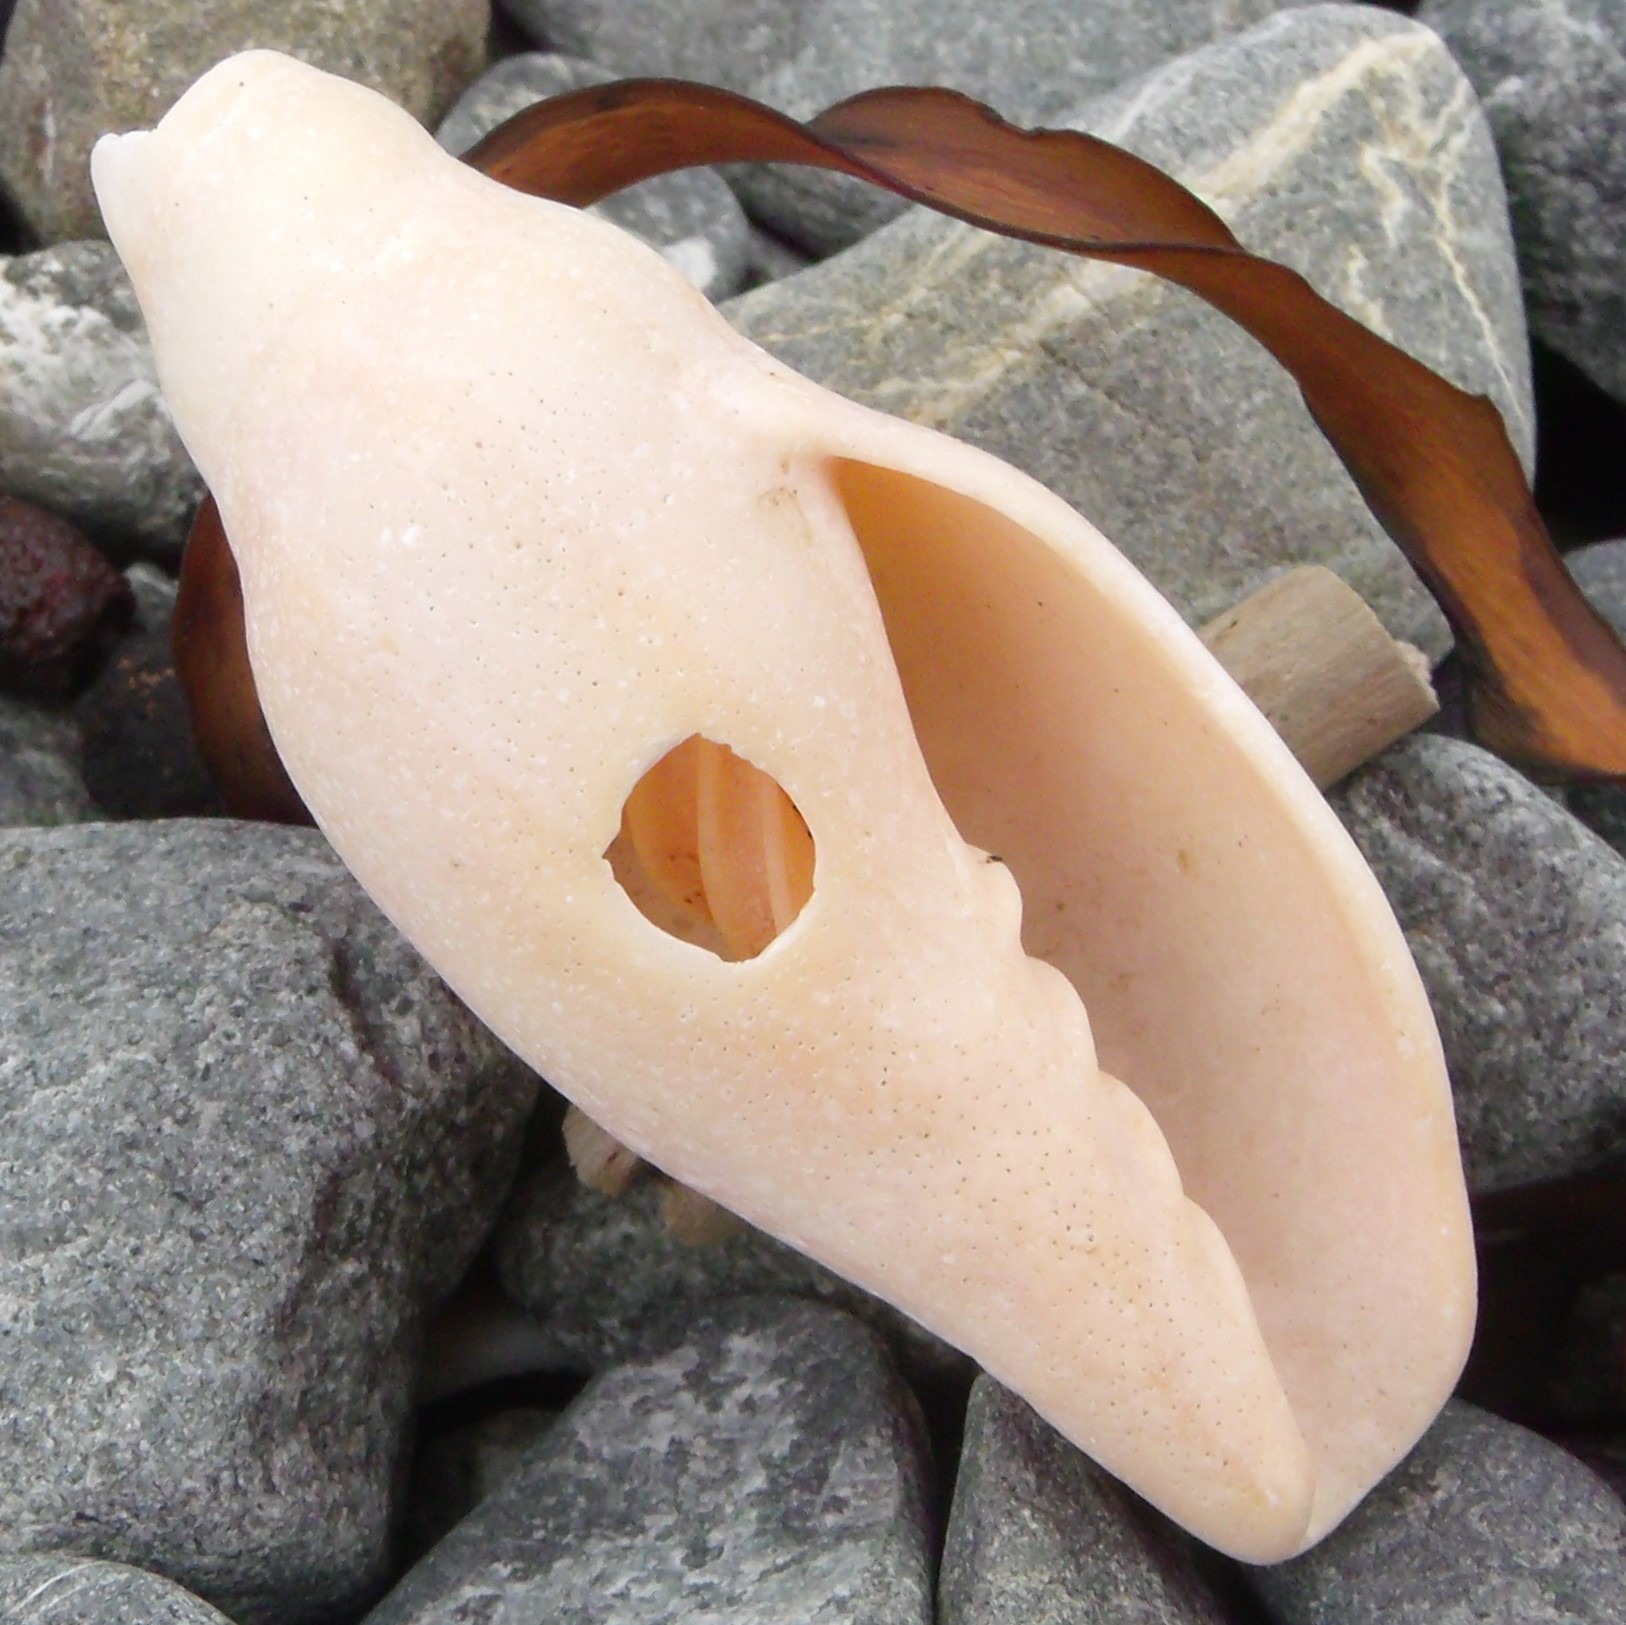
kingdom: Animalia
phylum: Mollusca
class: Gastropoda
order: Neogastropoda
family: Volutidae
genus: Alcithoe
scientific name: Alcithoe fusus
